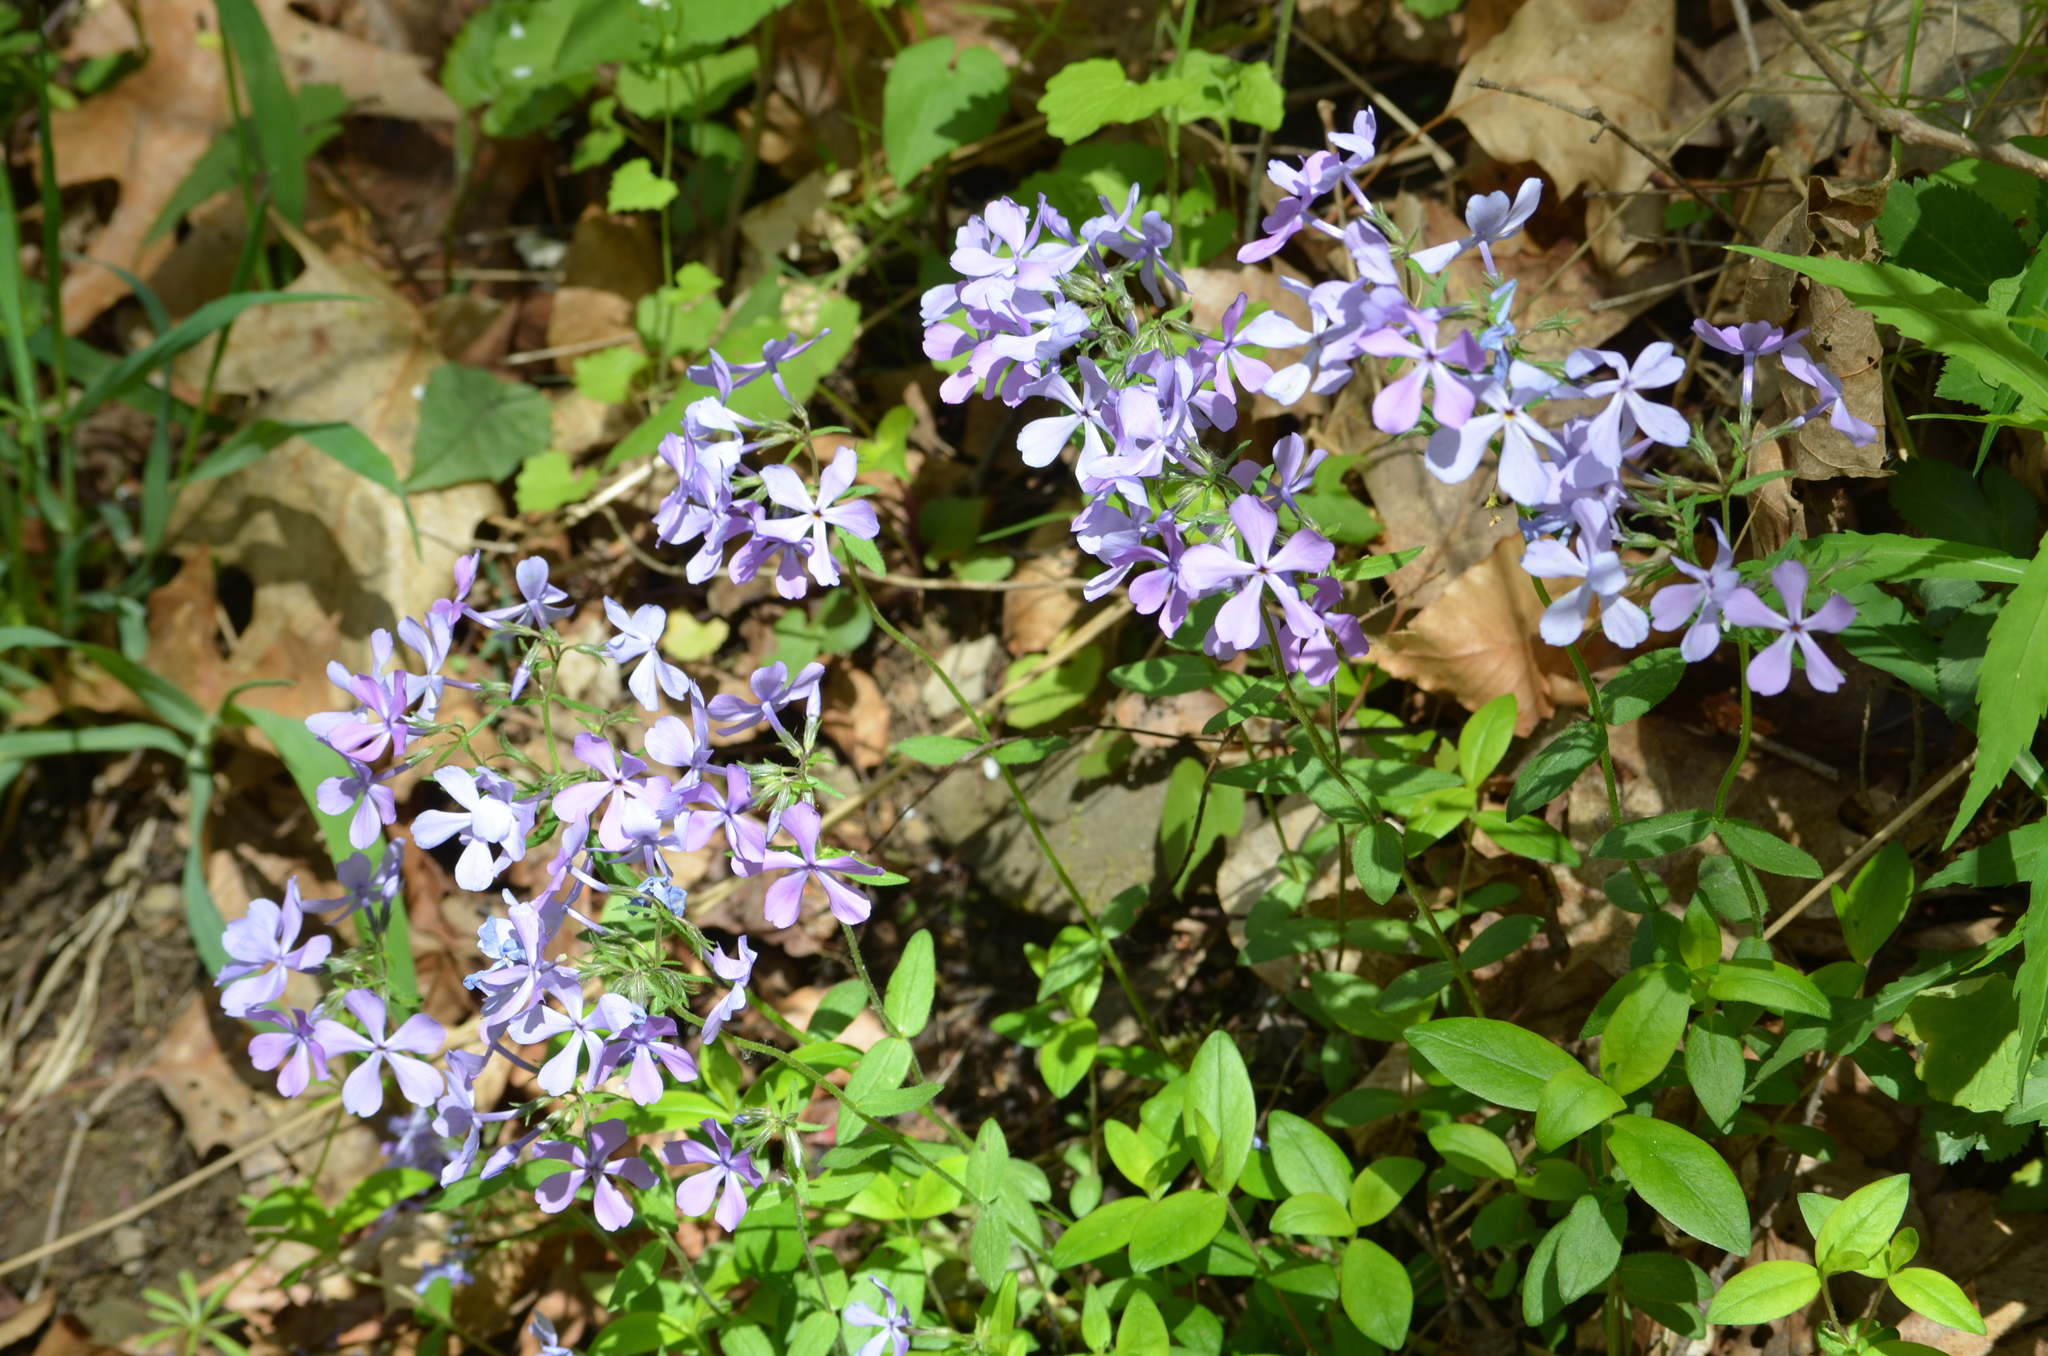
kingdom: Plantae
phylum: Tracheophyta
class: Magnoliopsida
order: Ericales
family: Polemoniaceae
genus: Phlox
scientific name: Phlox divaricata
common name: Blue phlox
